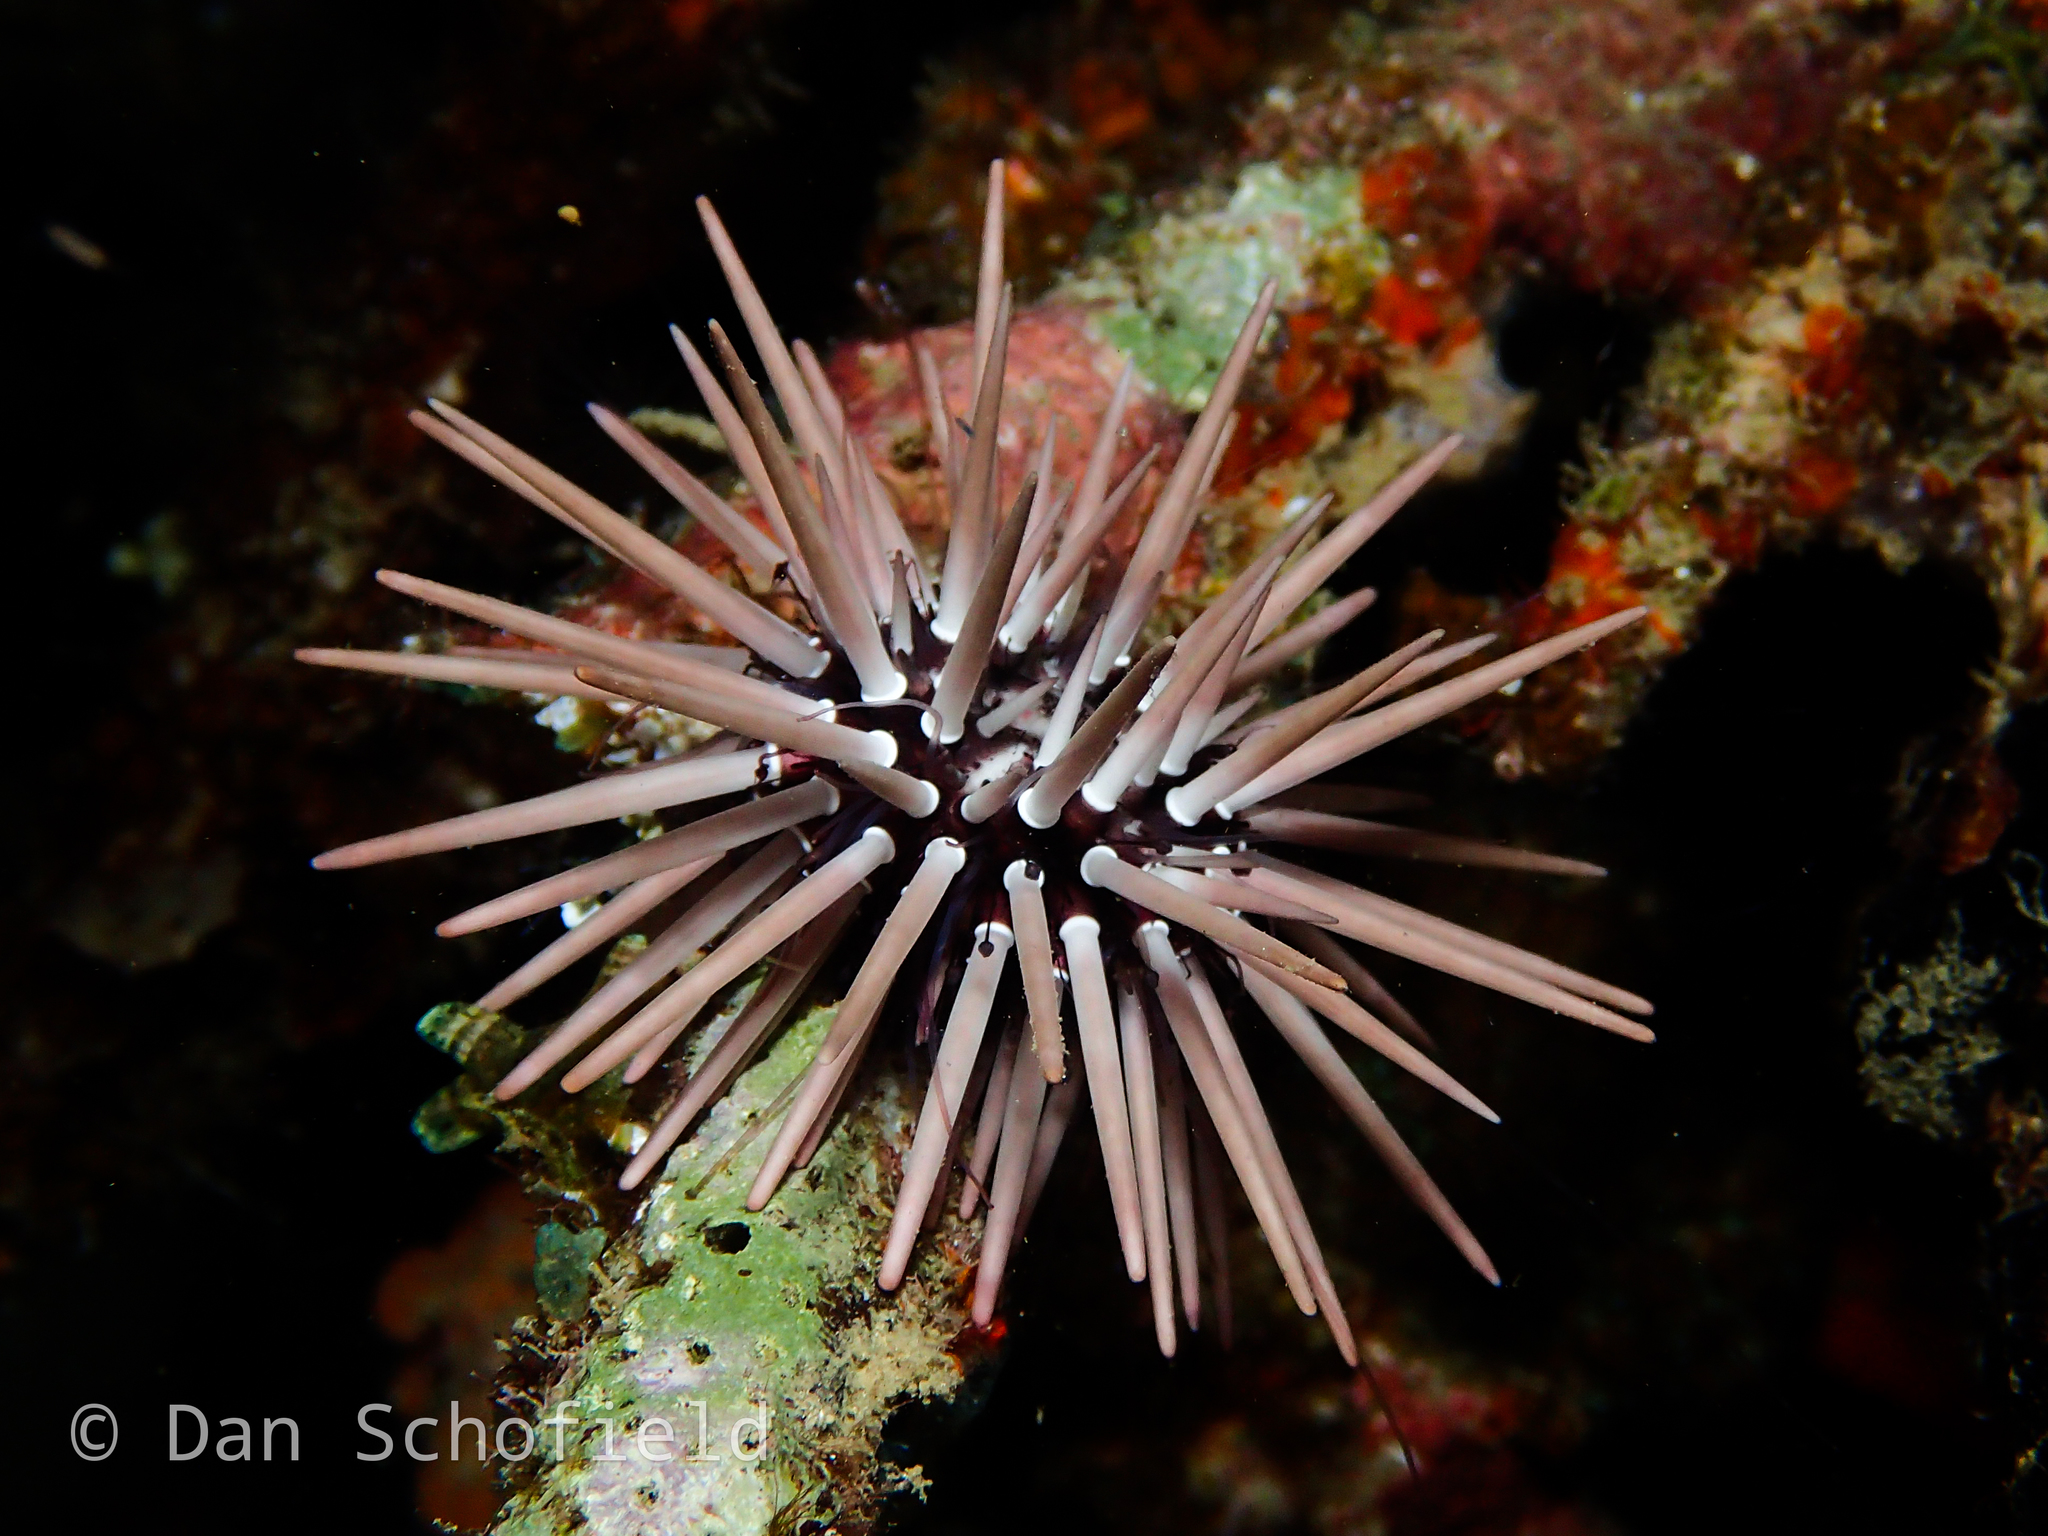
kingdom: Animalia
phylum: Echinodermata
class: Echinoidea
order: Camarodonta
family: Echinometridae
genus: Echinometra
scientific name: Echinometra mathaei
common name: Rock-boring urchin
